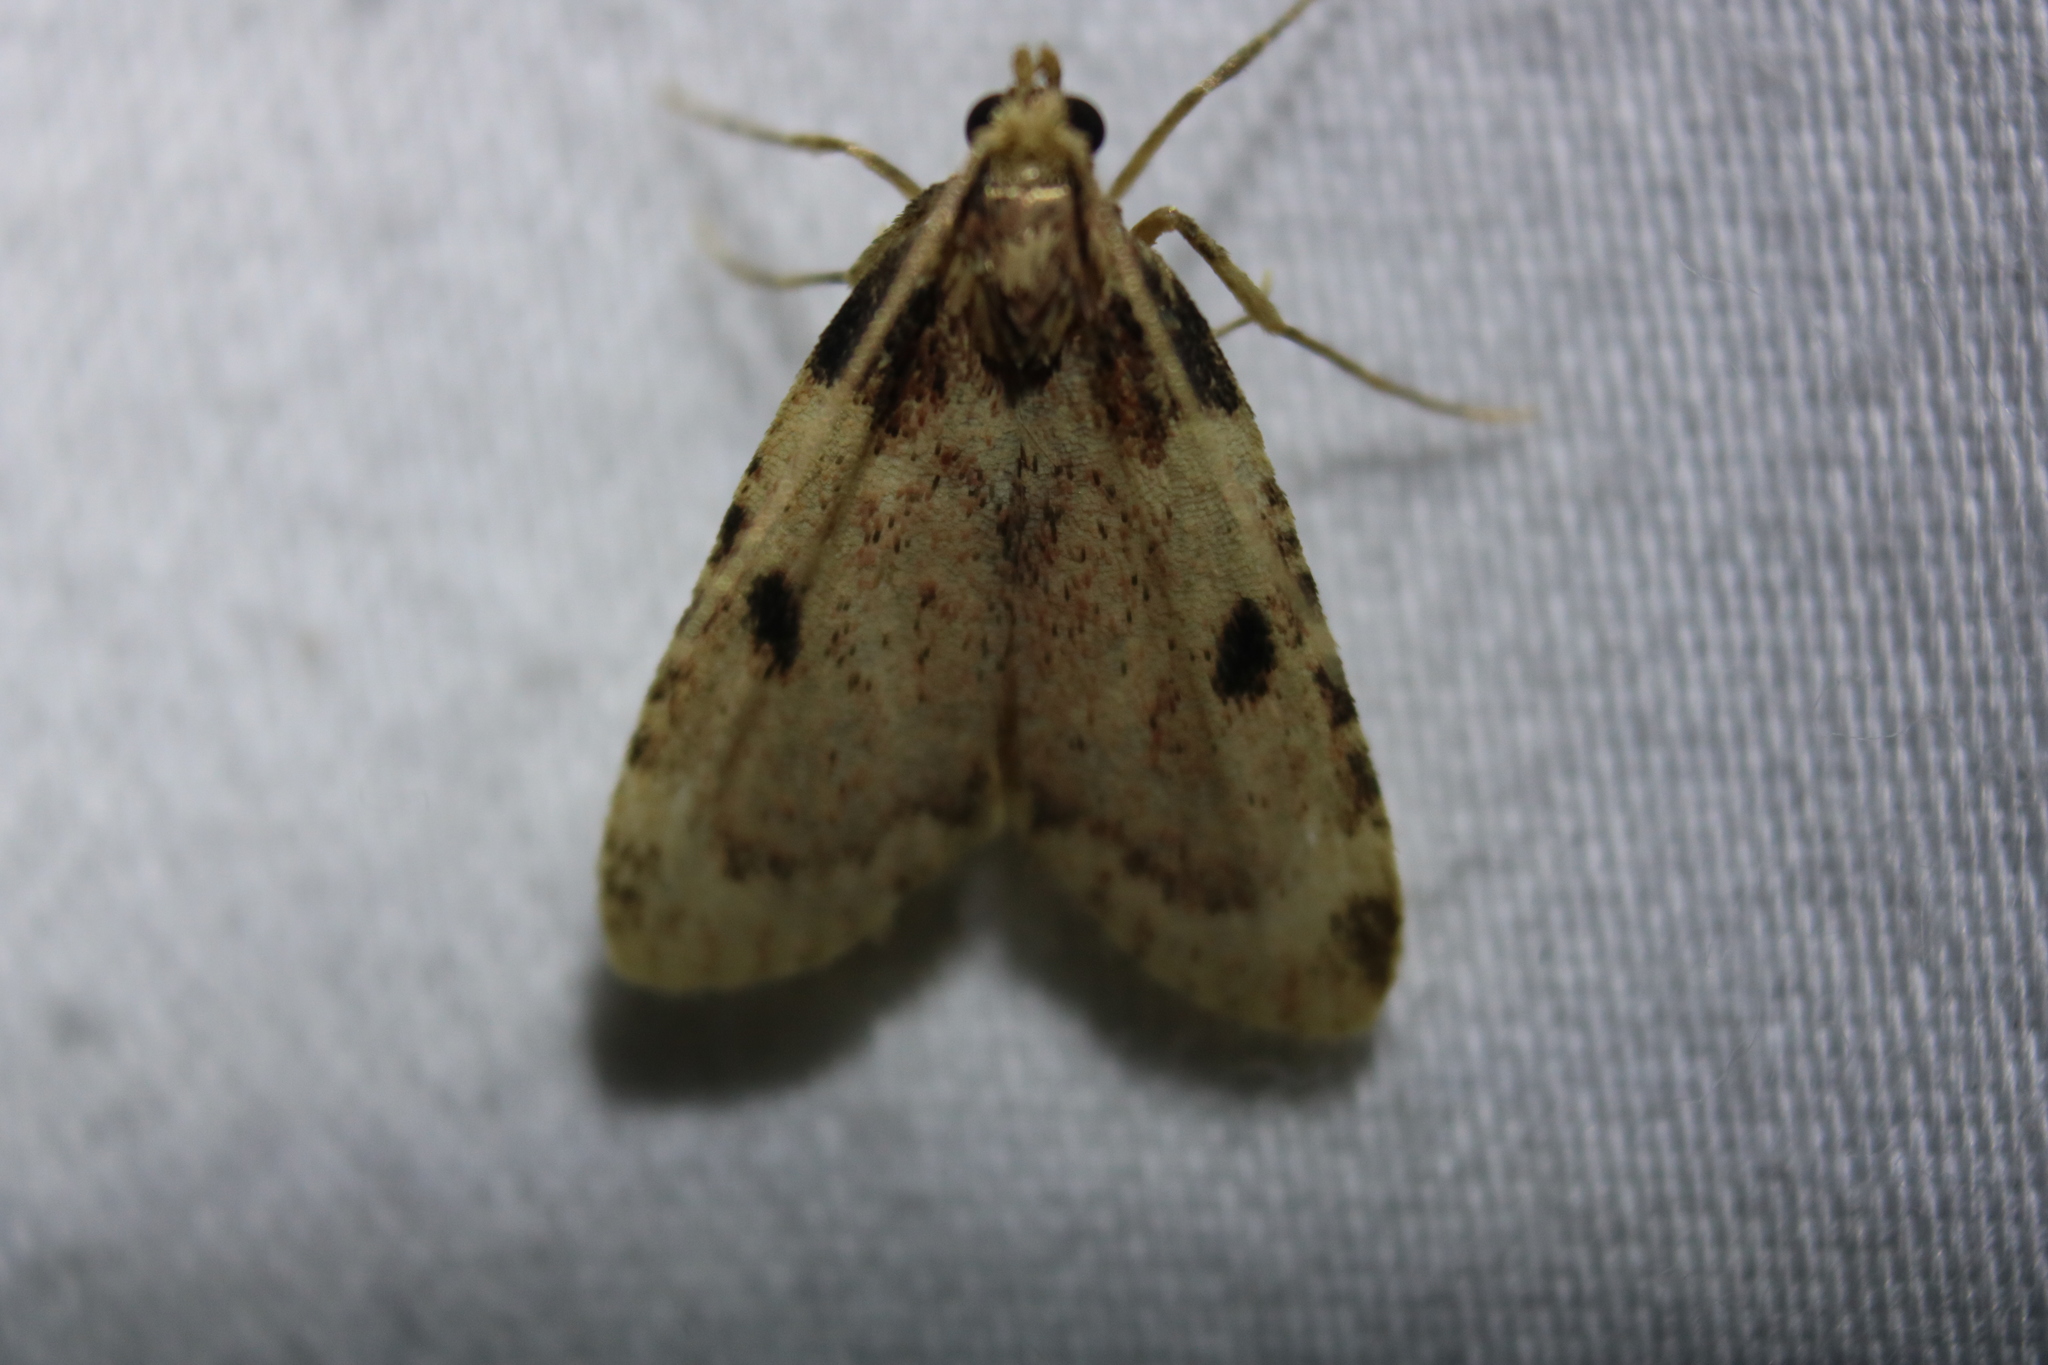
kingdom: Animalia
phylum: Arthropoda
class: Insecta
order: Lepidoptera
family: Pyralidae
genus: Aglossa
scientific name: Aglossa costiferalis
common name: Calico pyralid moth
